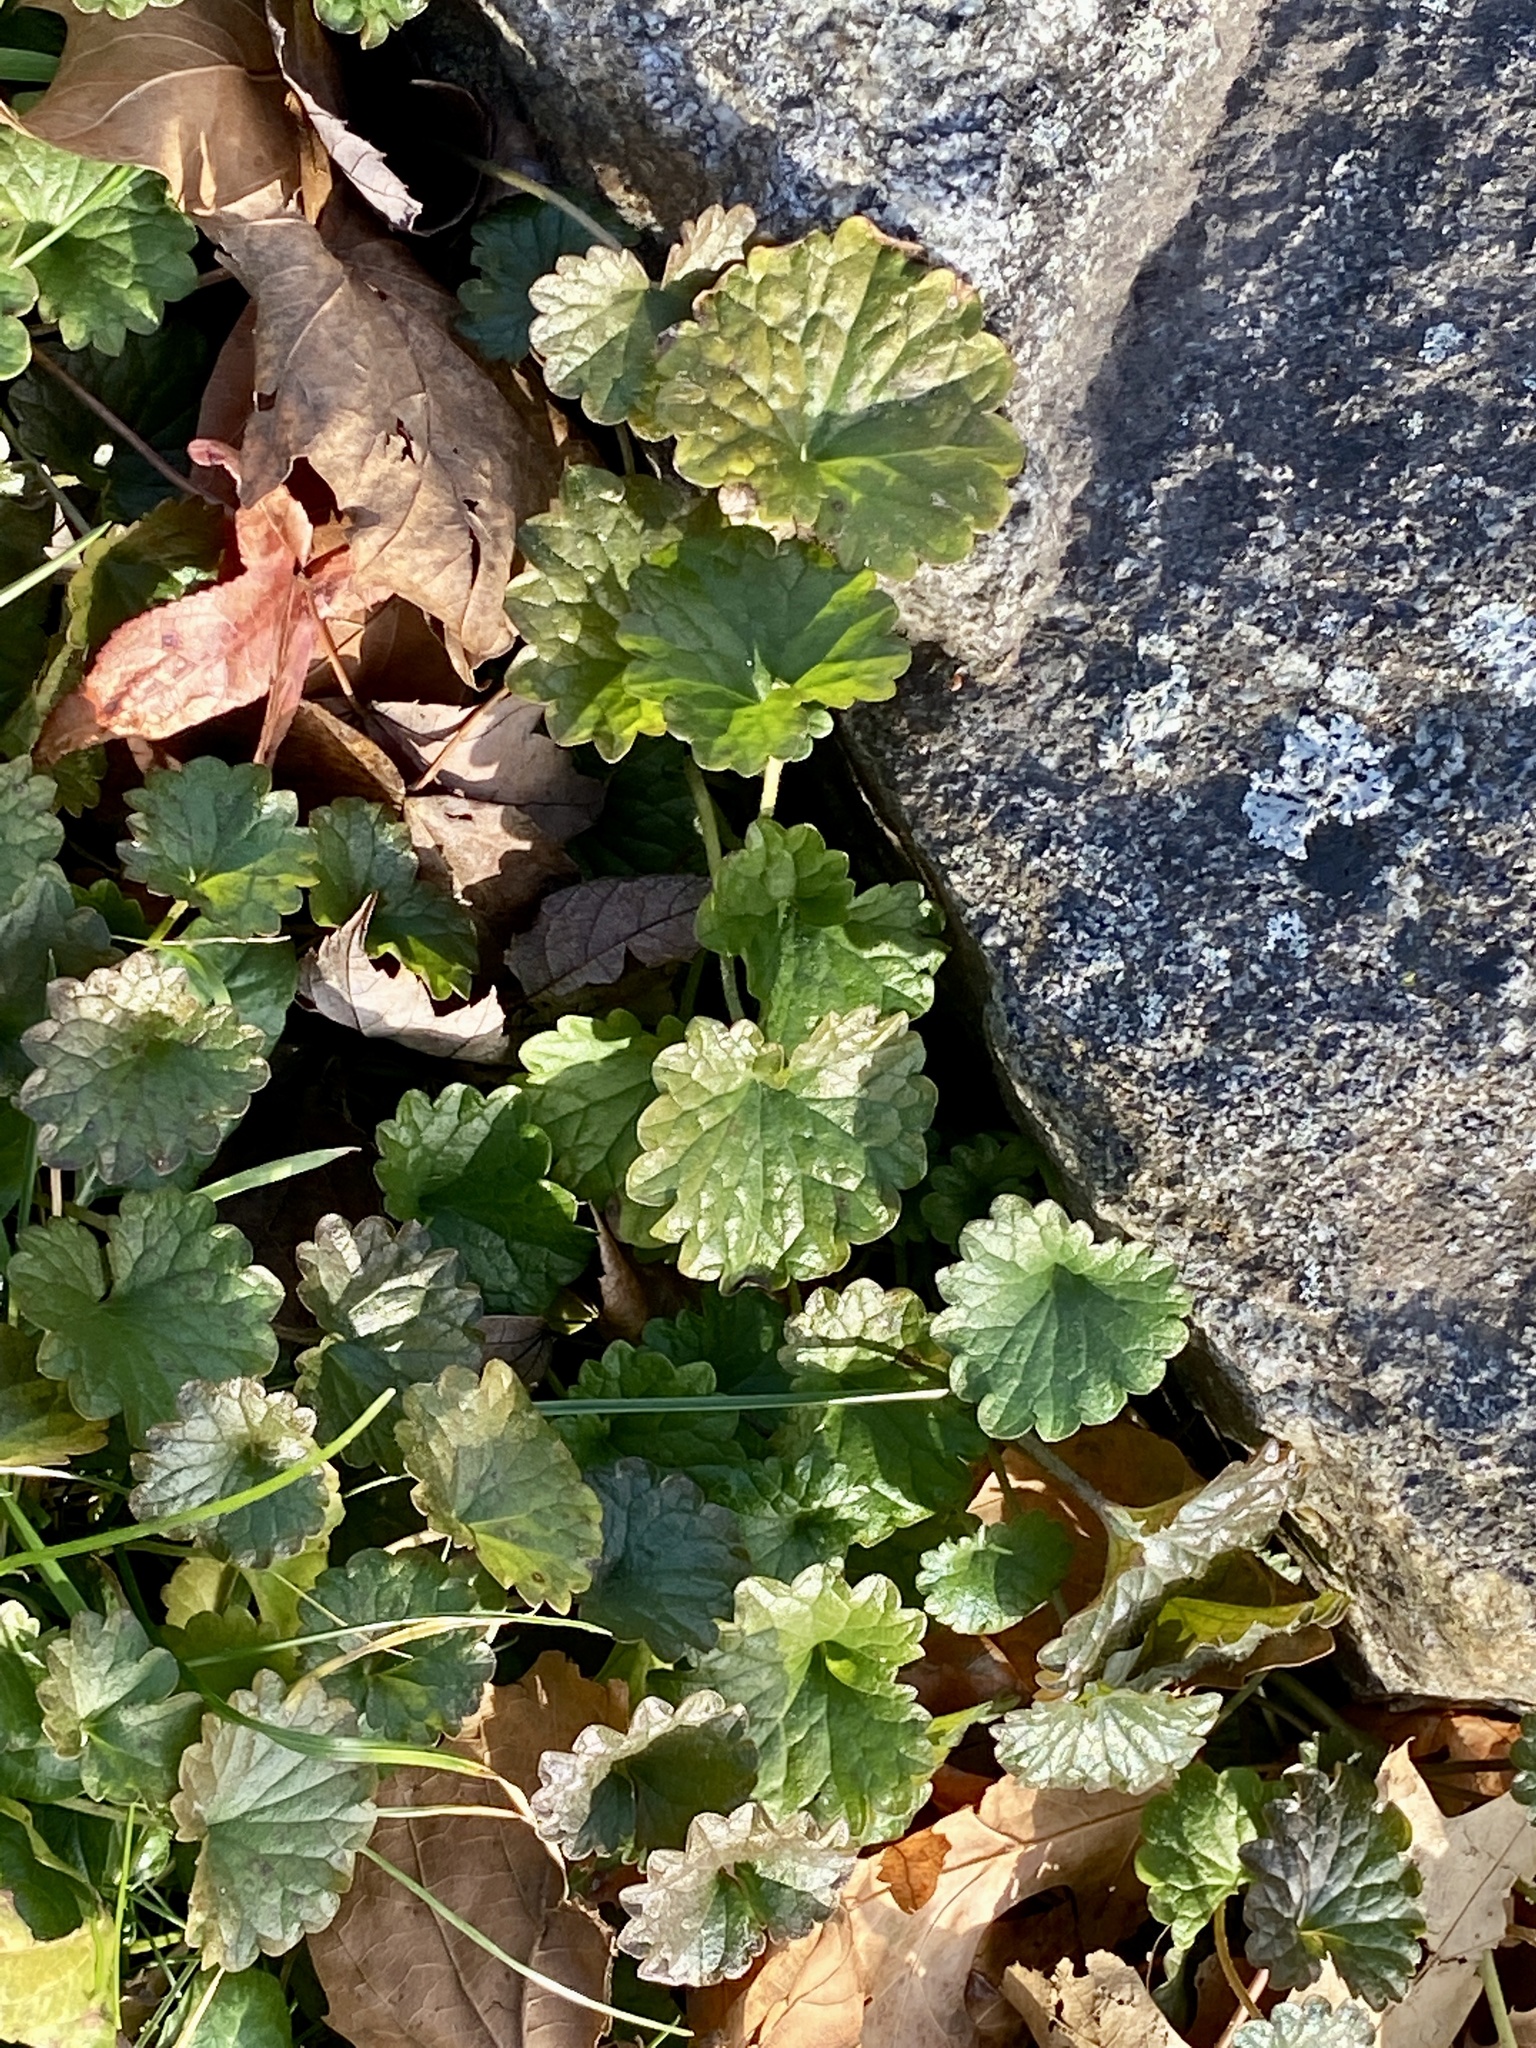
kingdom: Plantae
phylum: Tracheophyta
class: Magnoliopsida
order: Lamiales
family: Lamiaceae
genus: Glechoma
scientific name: Glechoma hederacea
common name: Ground ivy
